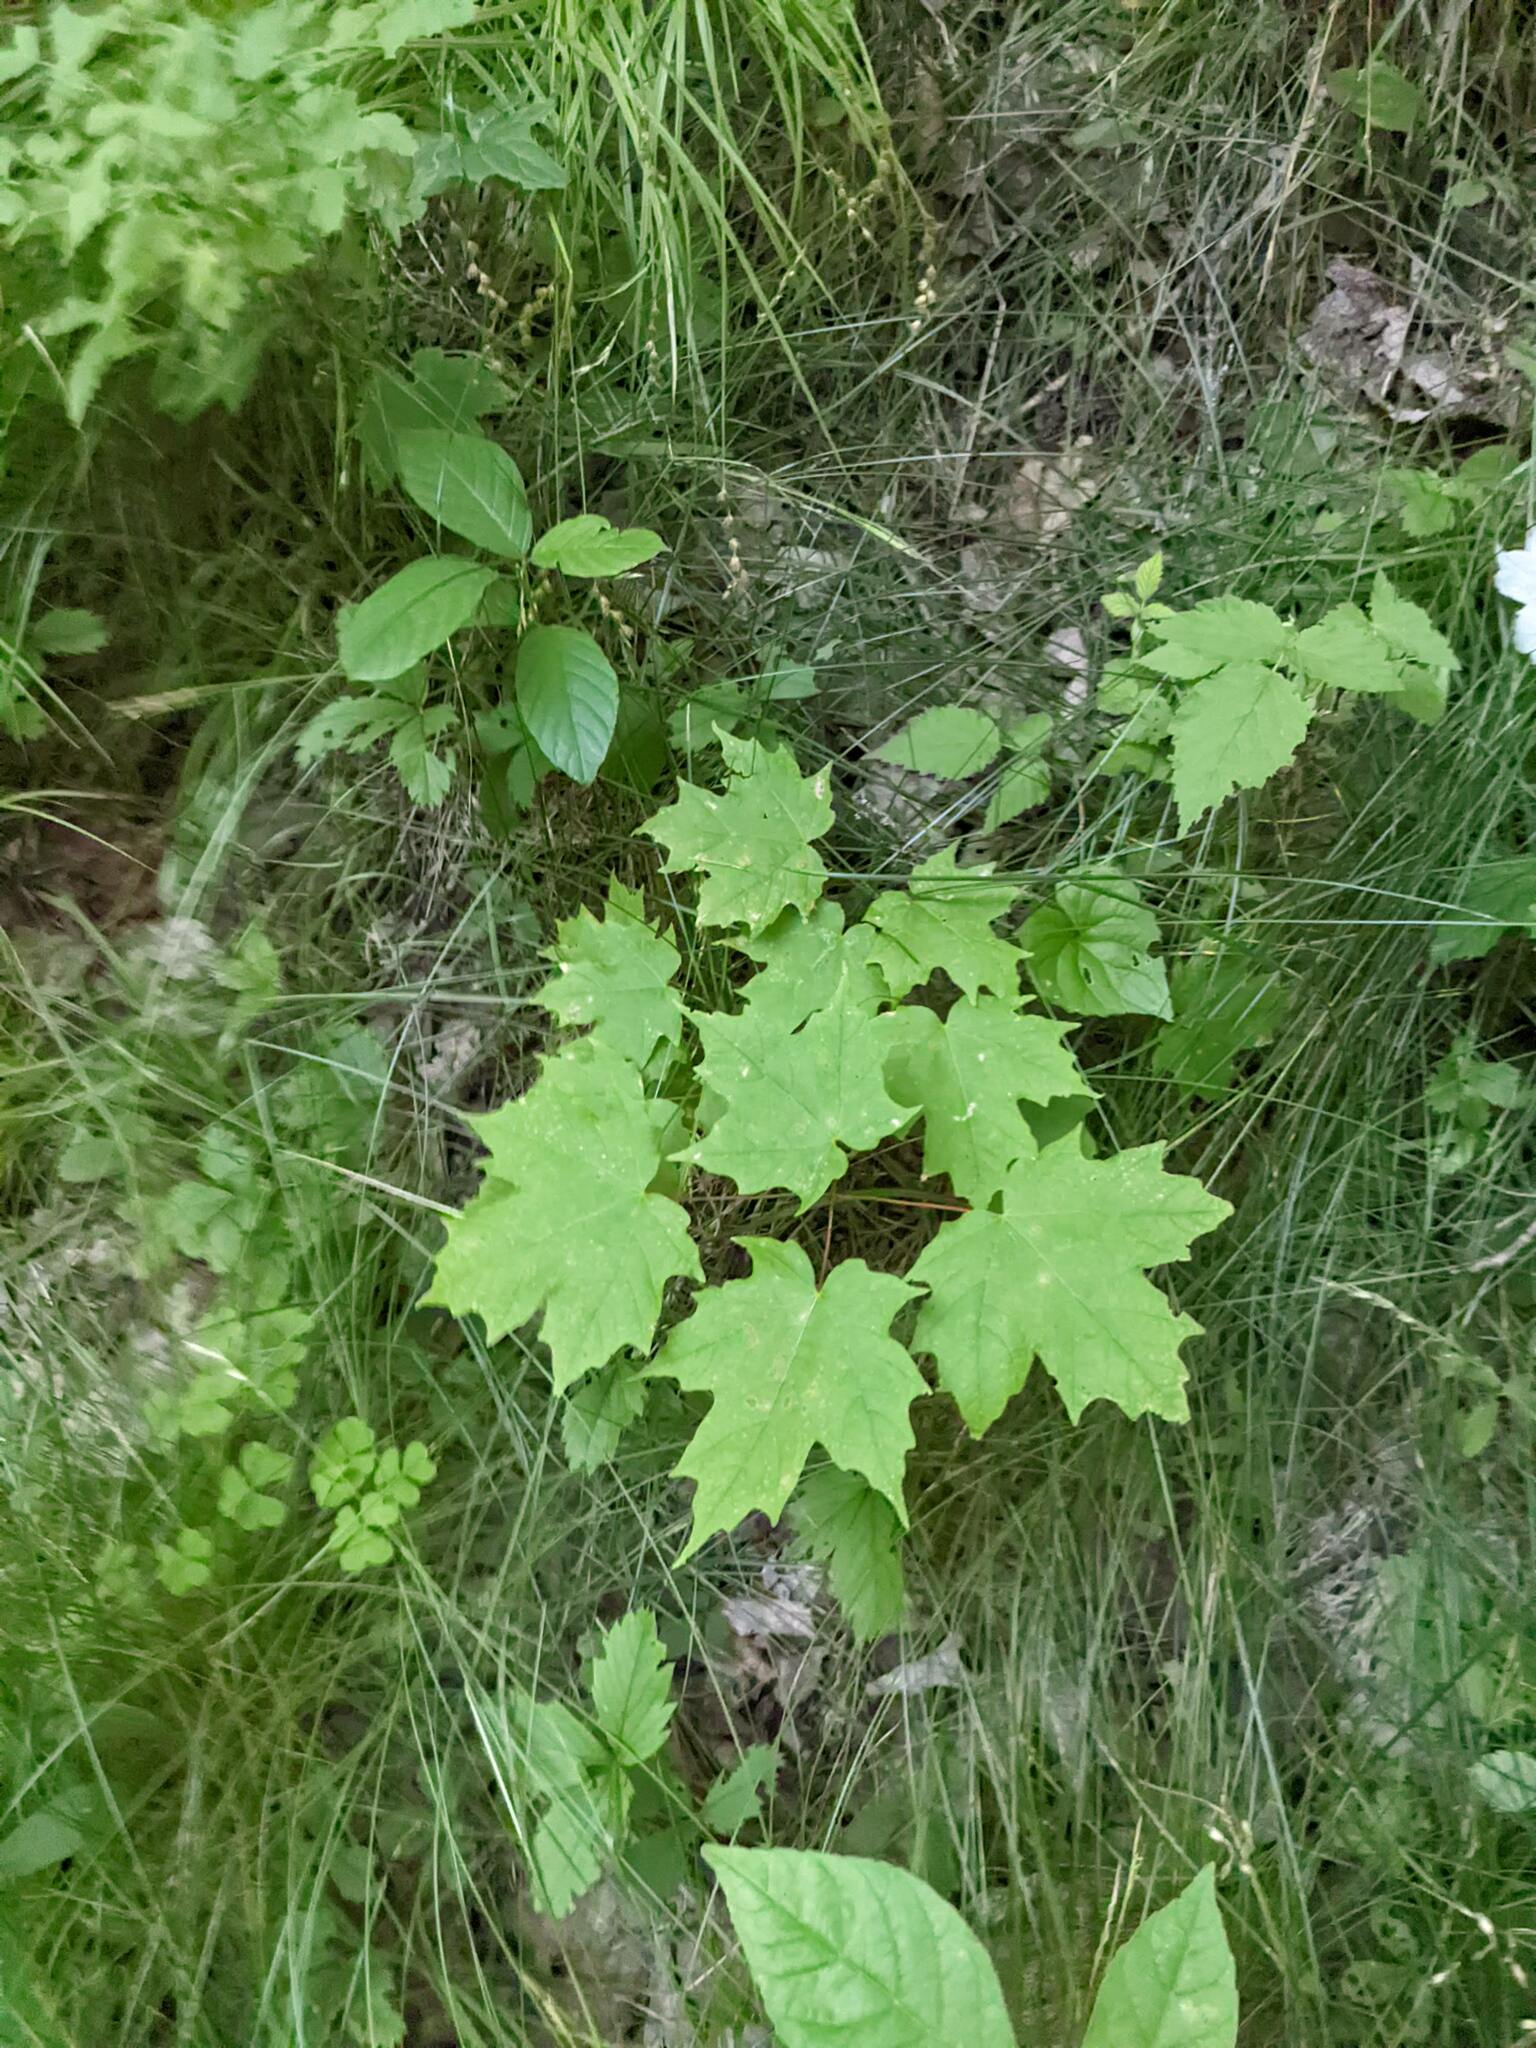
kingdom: Plantae
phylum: Tracheophyta
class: Magnoliopsida
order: Sapindales
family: Sapindaceae
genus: Acer
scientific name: Acer saccharum
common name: Sugar maple
